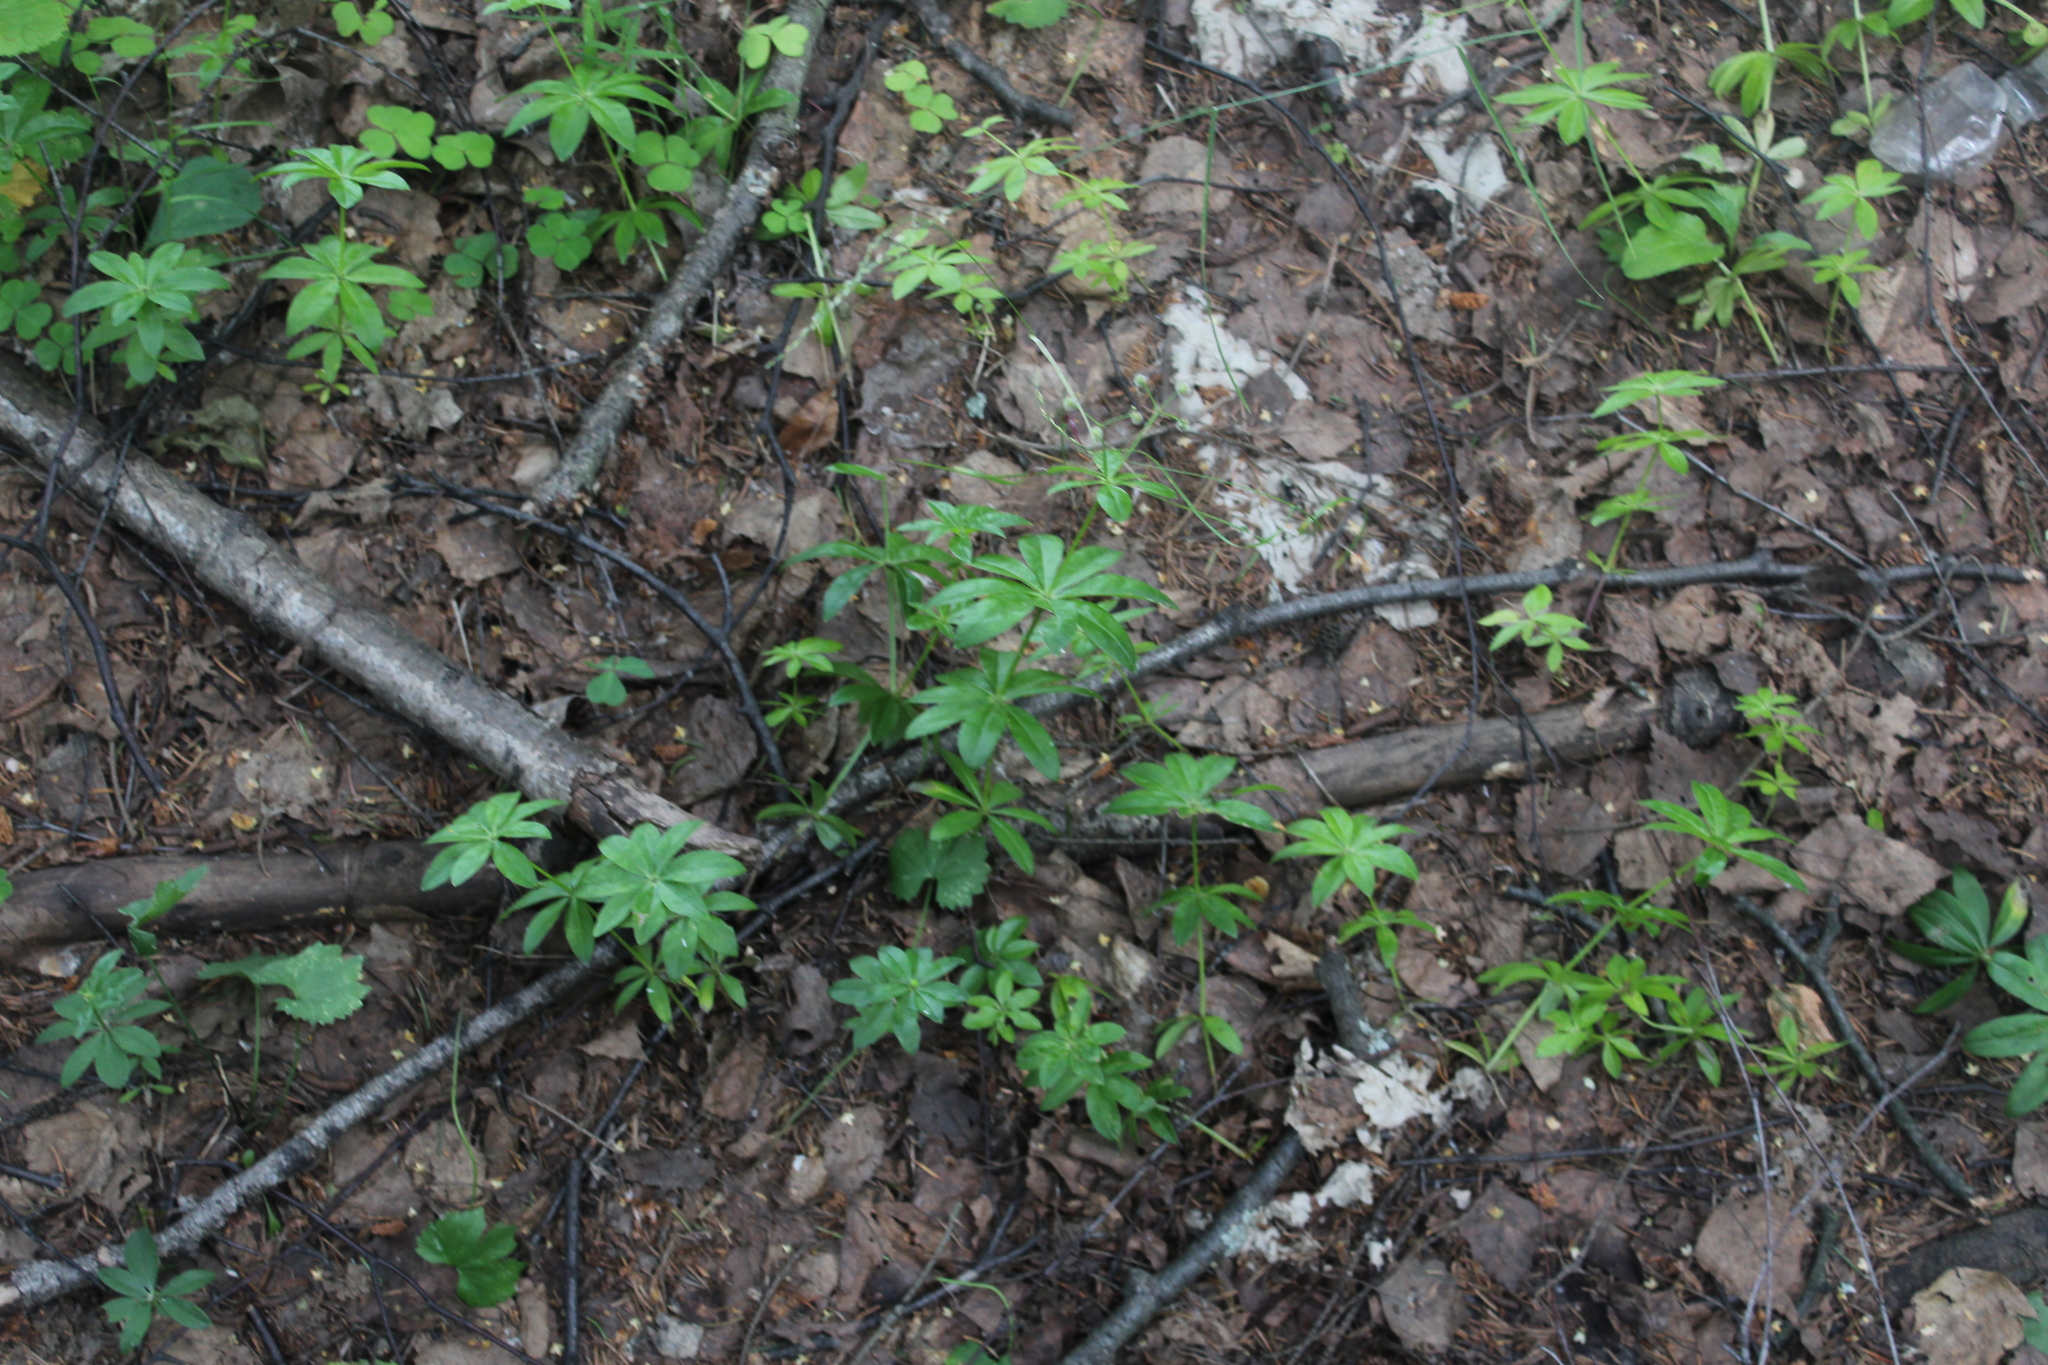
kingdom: Plantae
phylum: Tracheophyta
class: Magnoliopsida
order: Gentianales
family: Rubiaceae
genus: Galium
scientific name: Galium odoratum
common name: Sweet woodruff
